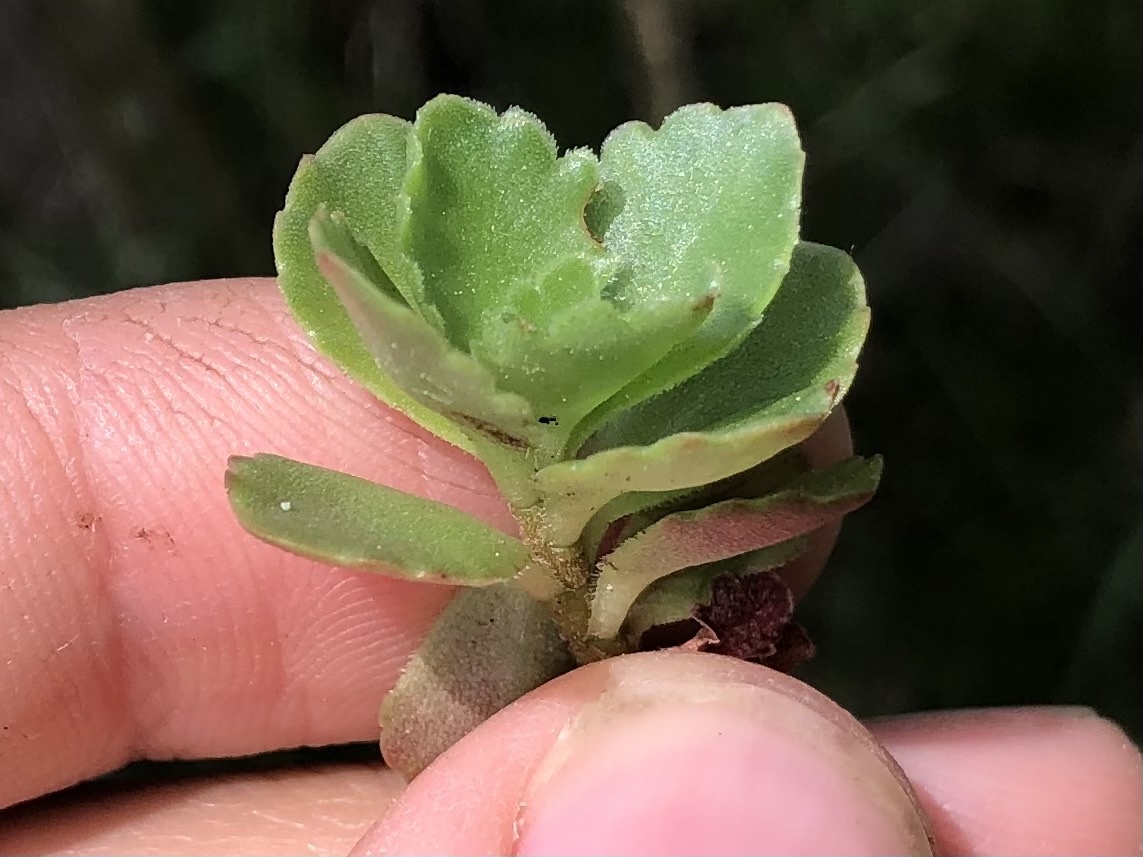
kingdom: Plantae
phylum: Tracheophyta
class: Magnoliopsida
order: Saxifragales
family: Crassulaceae
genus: Phedimus
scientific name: Phedimus spurius
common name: Caucasian stonecrop
